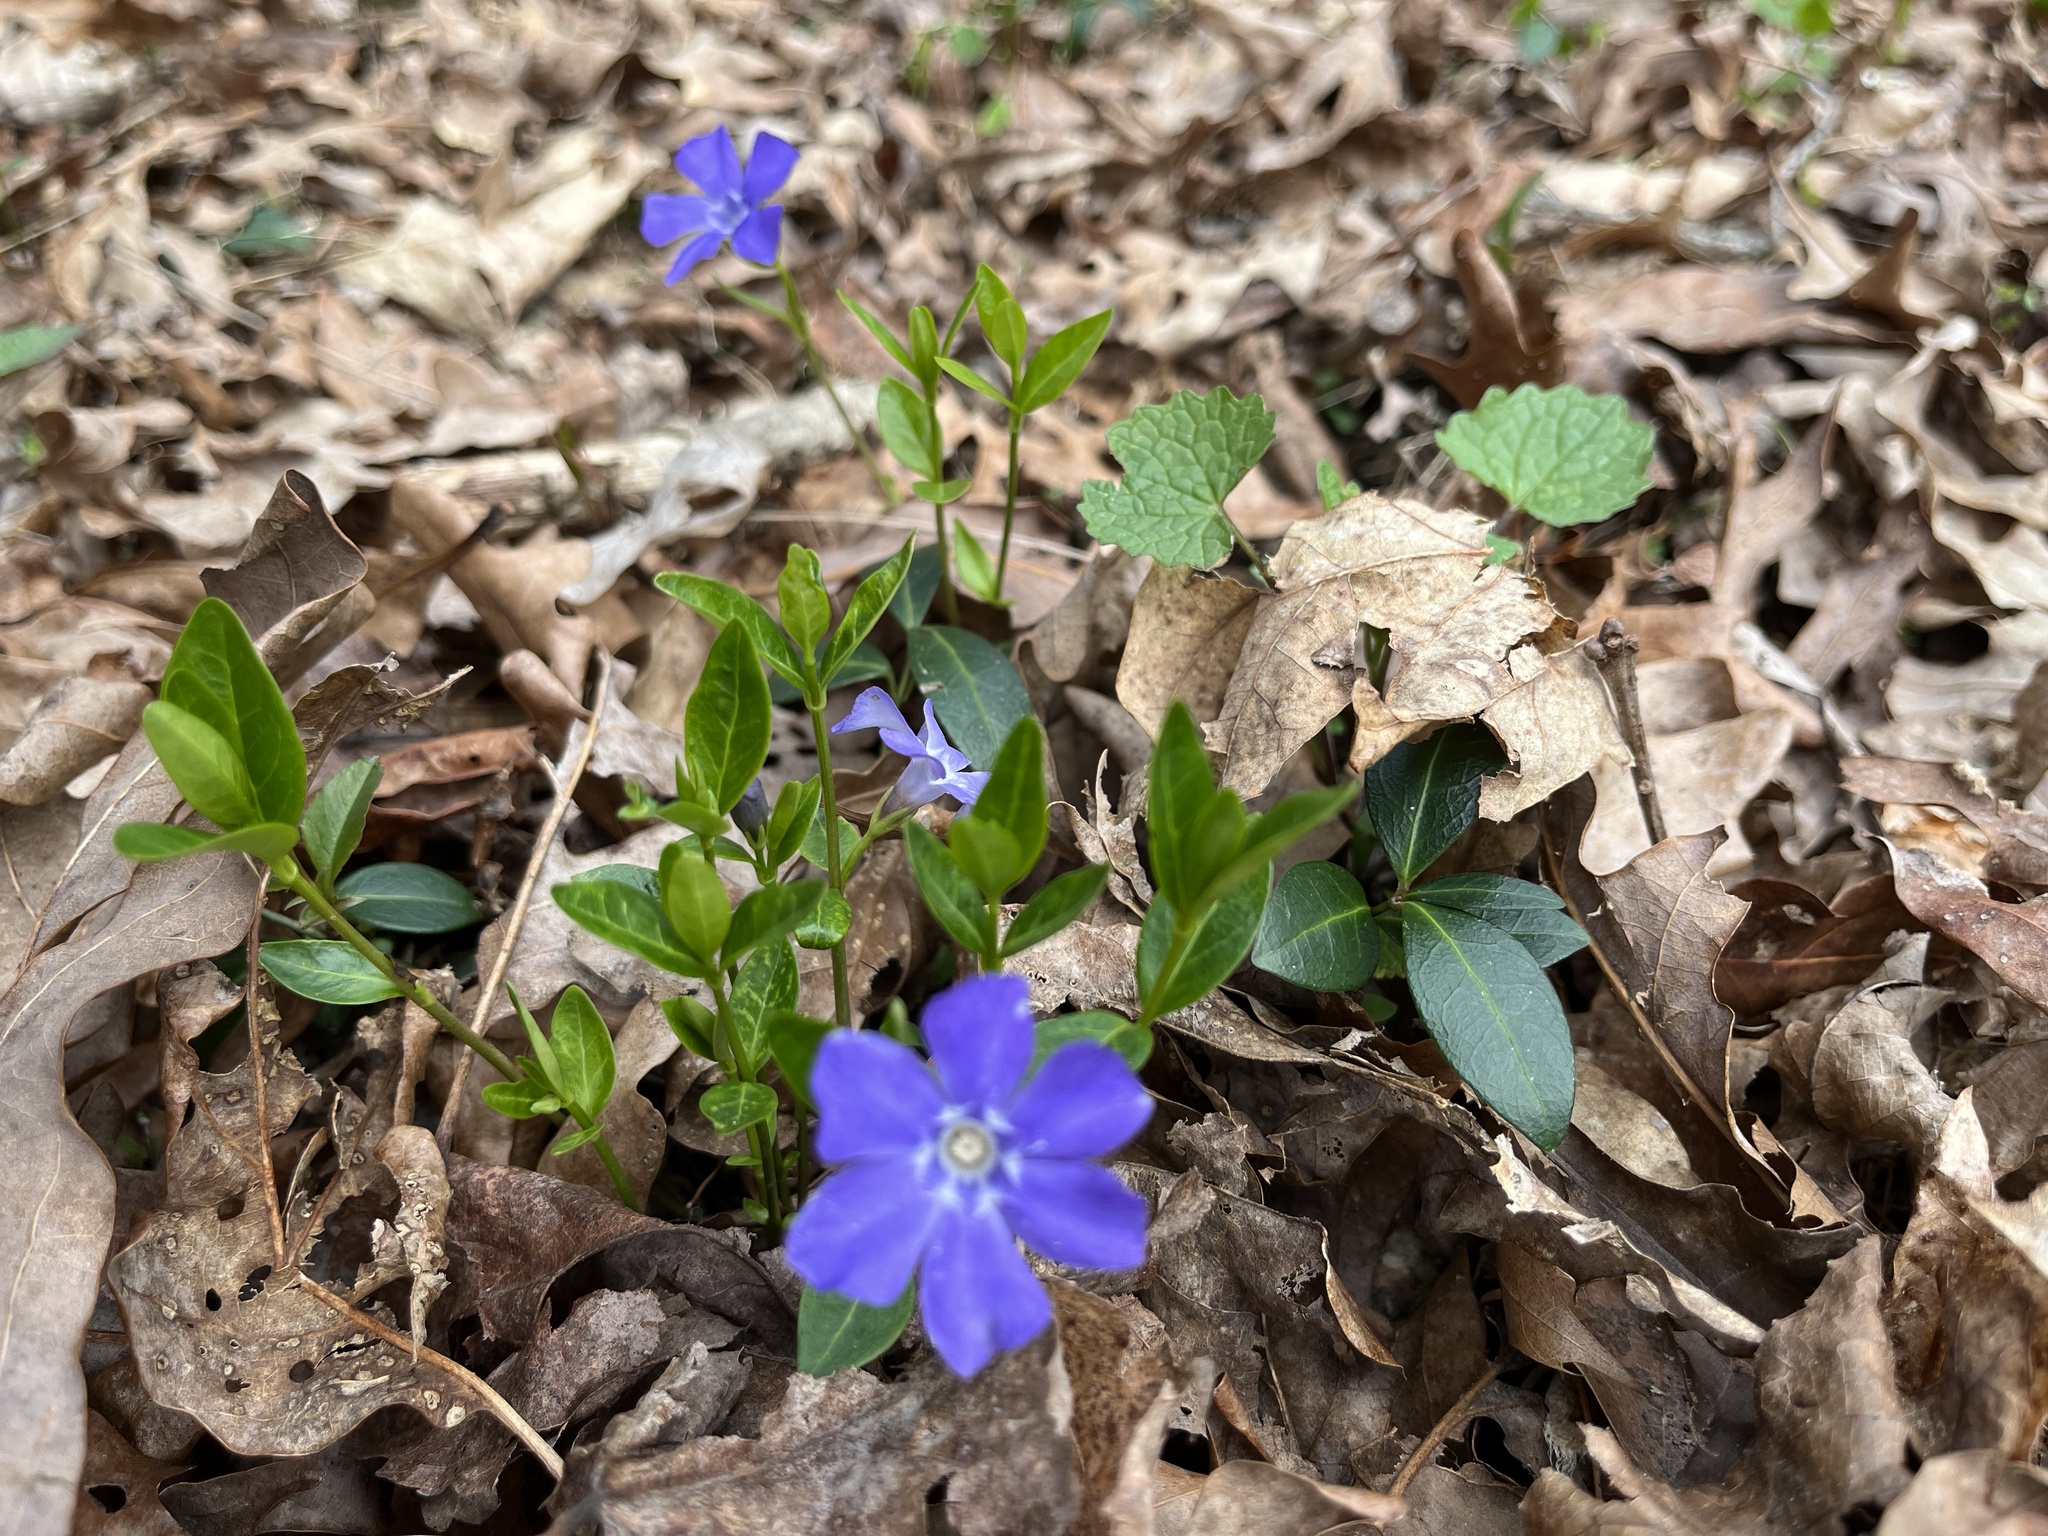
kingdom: Plantae
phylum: Tracheophyta
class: Magnoliopsida
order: Gentianales
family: Apocynaceae
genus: Vinca
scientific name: Vinca minor
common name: Lesser periwinkle
